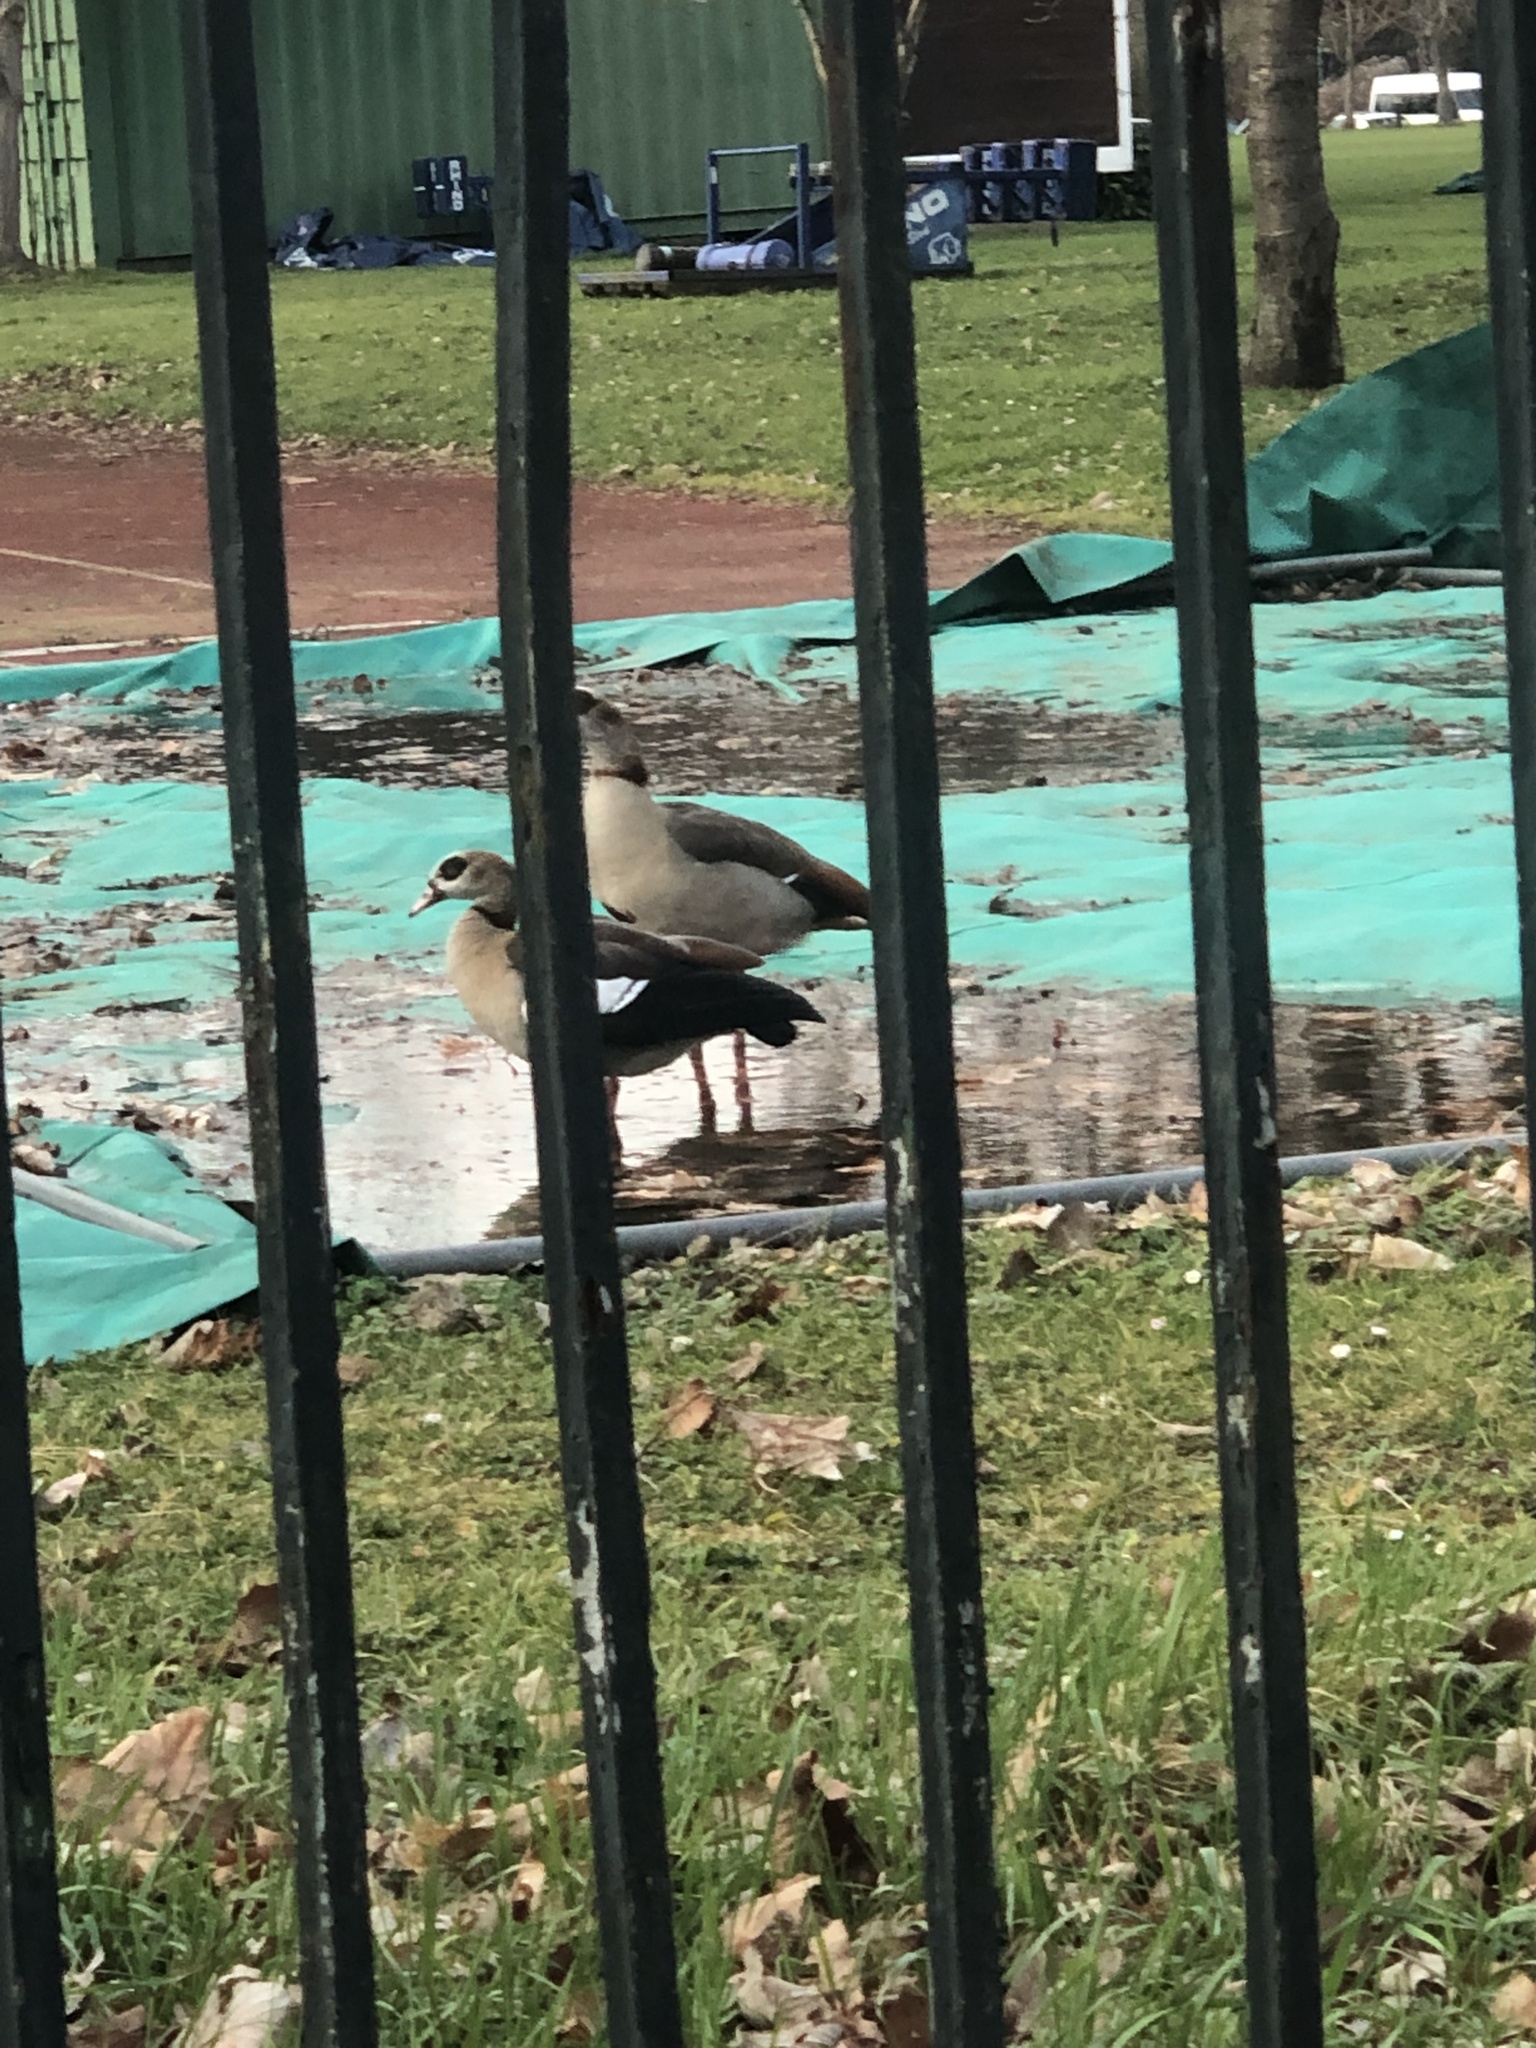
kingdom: Animalia
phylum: Chordata
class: Aves
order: Anseriformes
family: Anatidae
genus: Alopochen
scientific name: Alopochen aegyptiaca
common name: Egyptian goose
